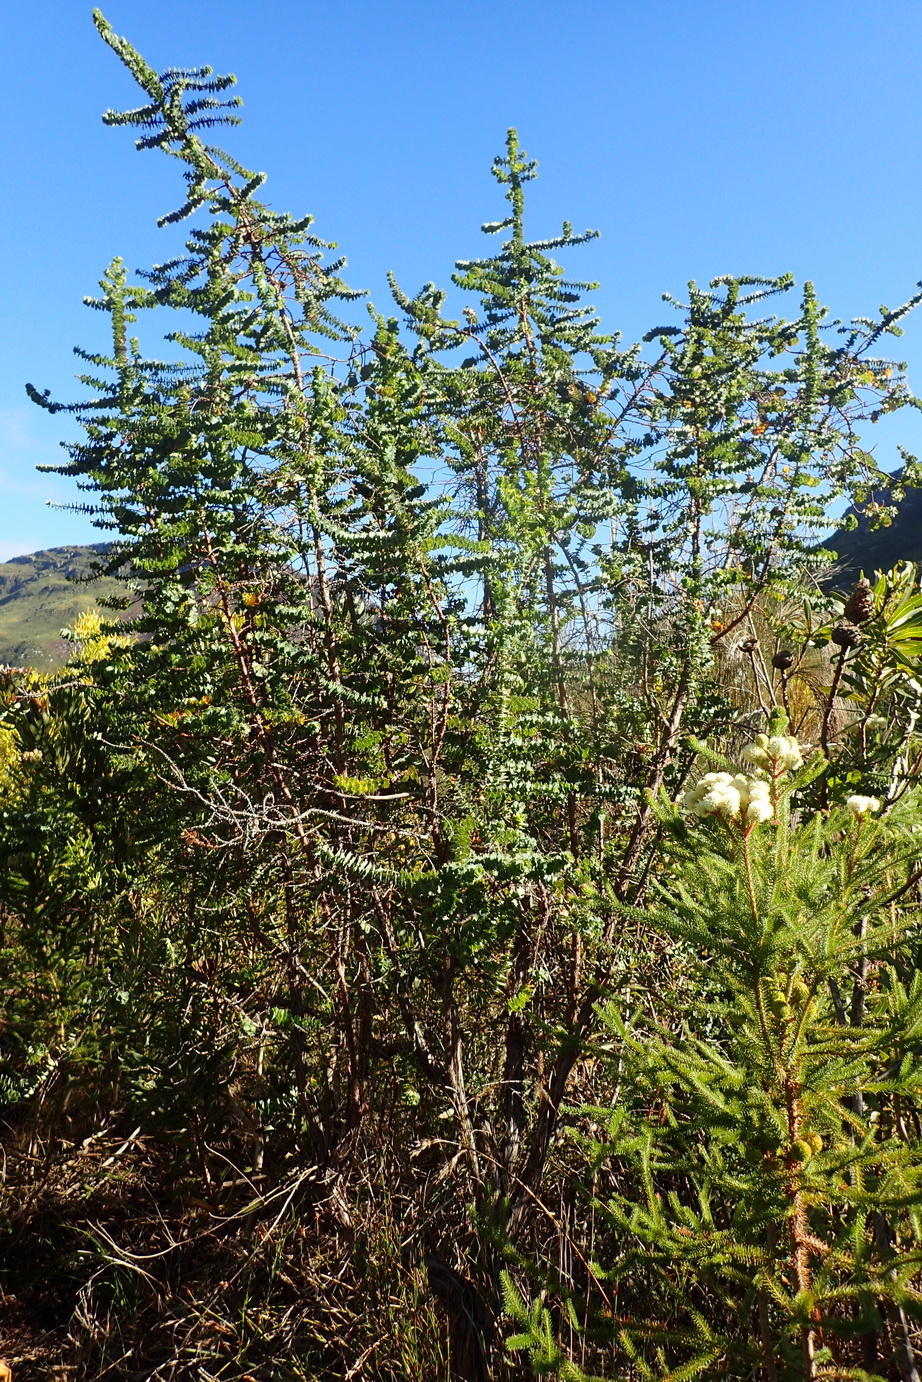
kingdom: Plantae
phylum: Tracheophyta
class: Magnoliopsida
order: Rosales
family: Rosaceae
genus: Cliffortia
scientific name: Cliffortia reniformis
